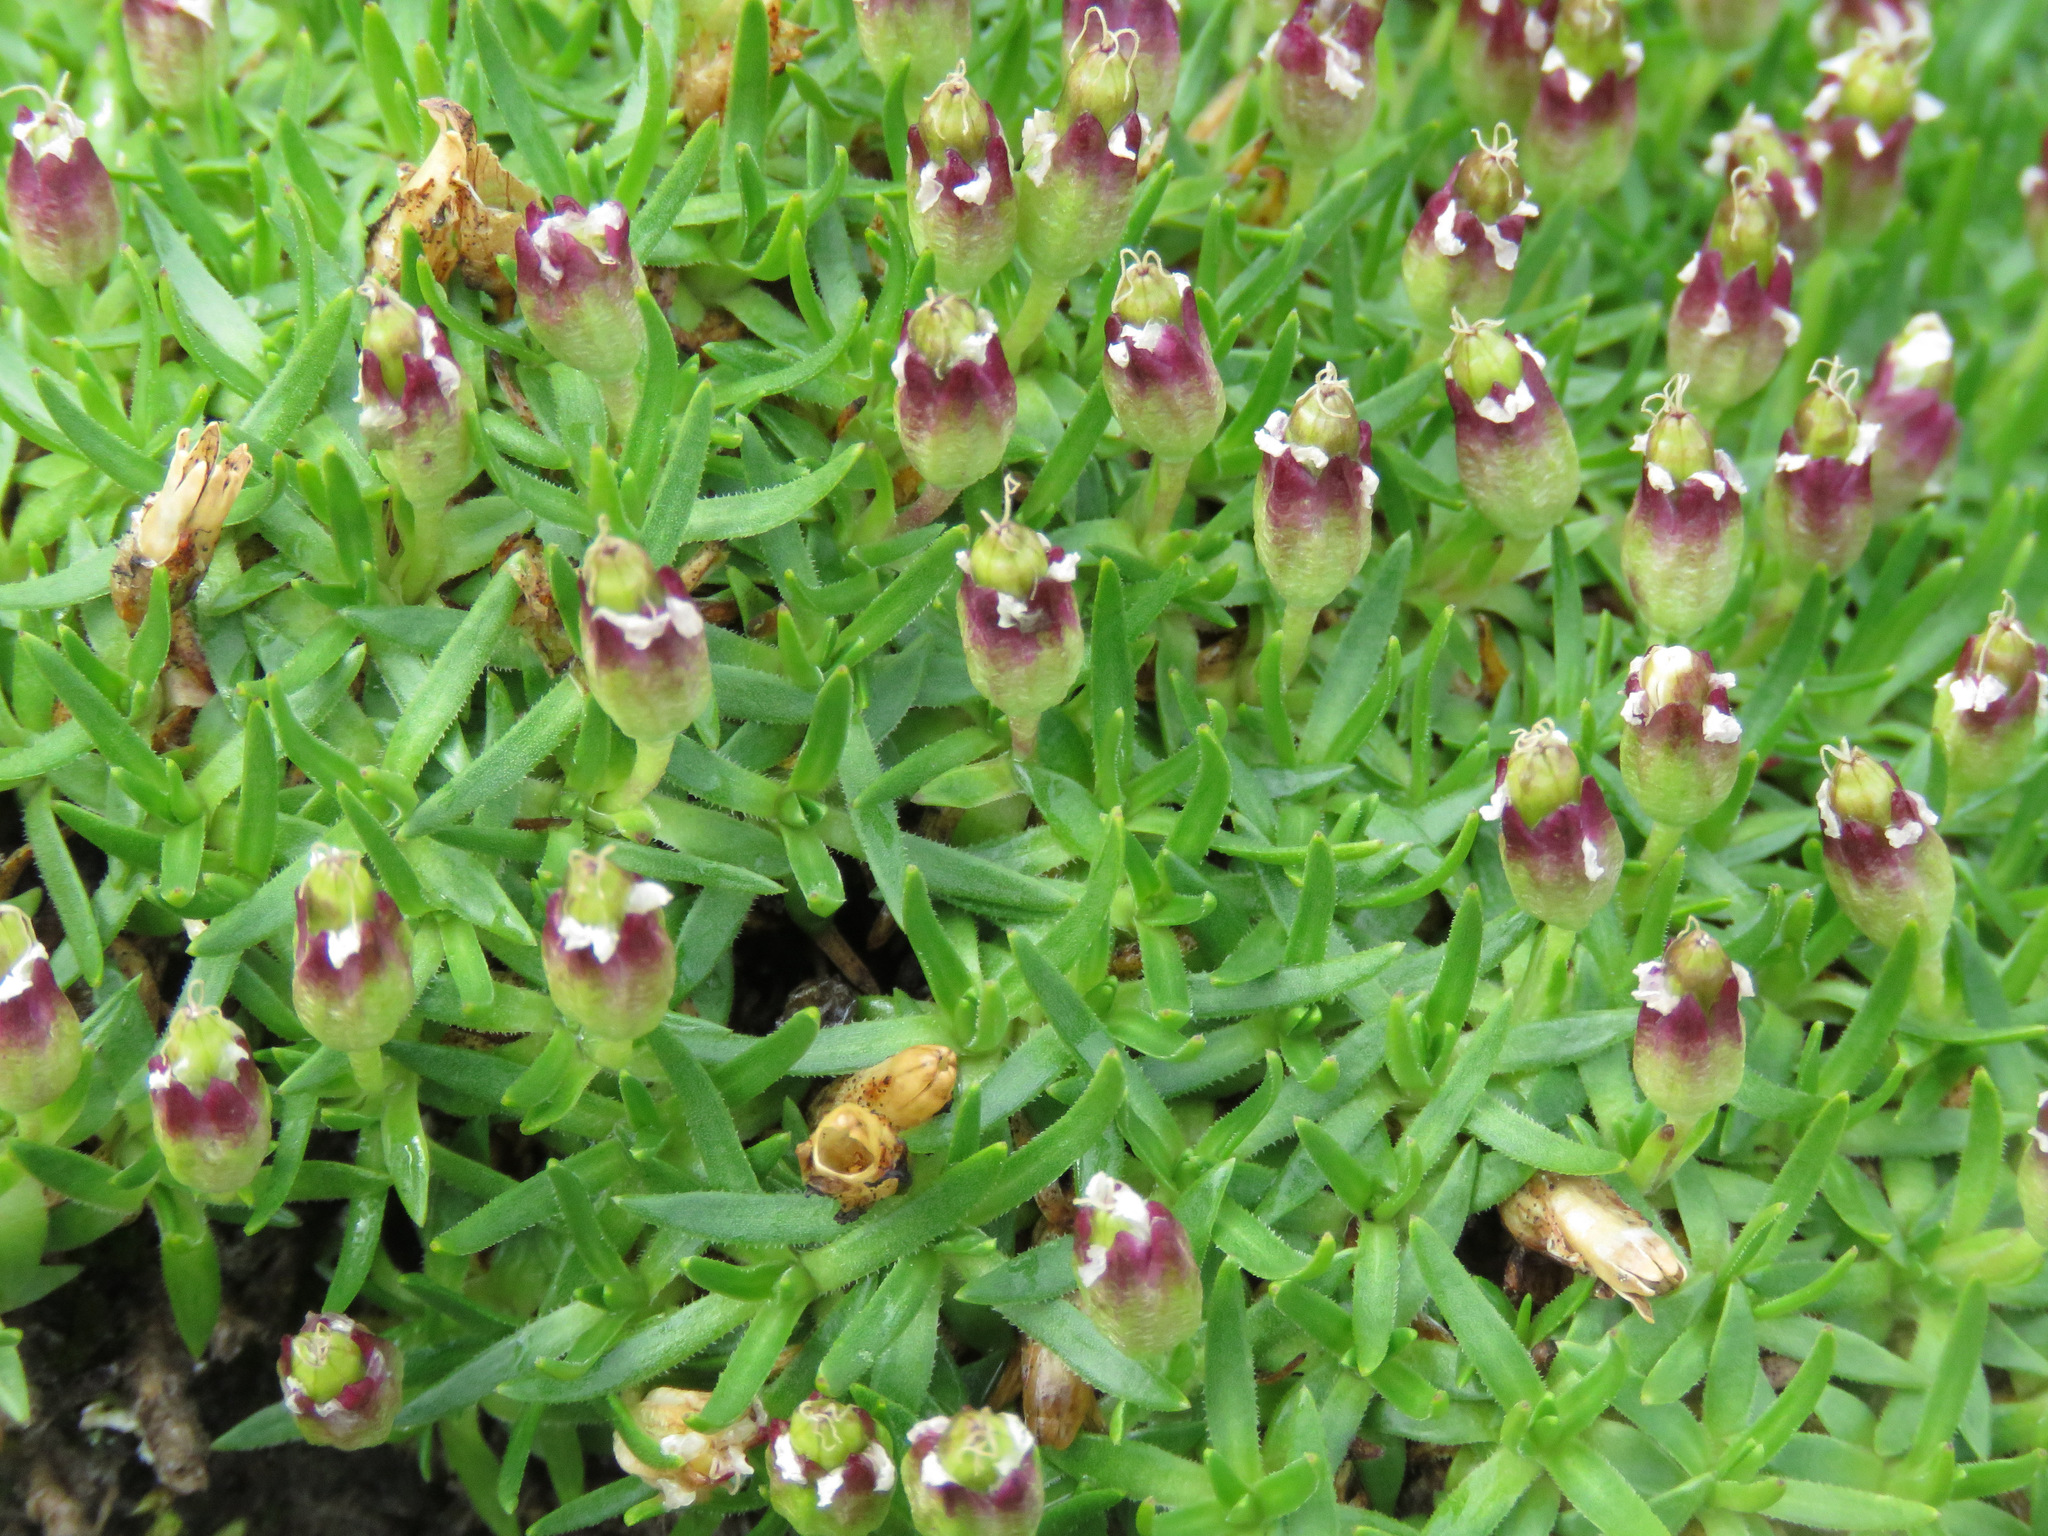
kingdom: Plantae
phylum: Tracheophyta
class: Magnoliopsida
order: Caryophyllales
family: Caryophyllaceae
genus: Silene
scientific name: Silene acaulis
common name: Moss campion
